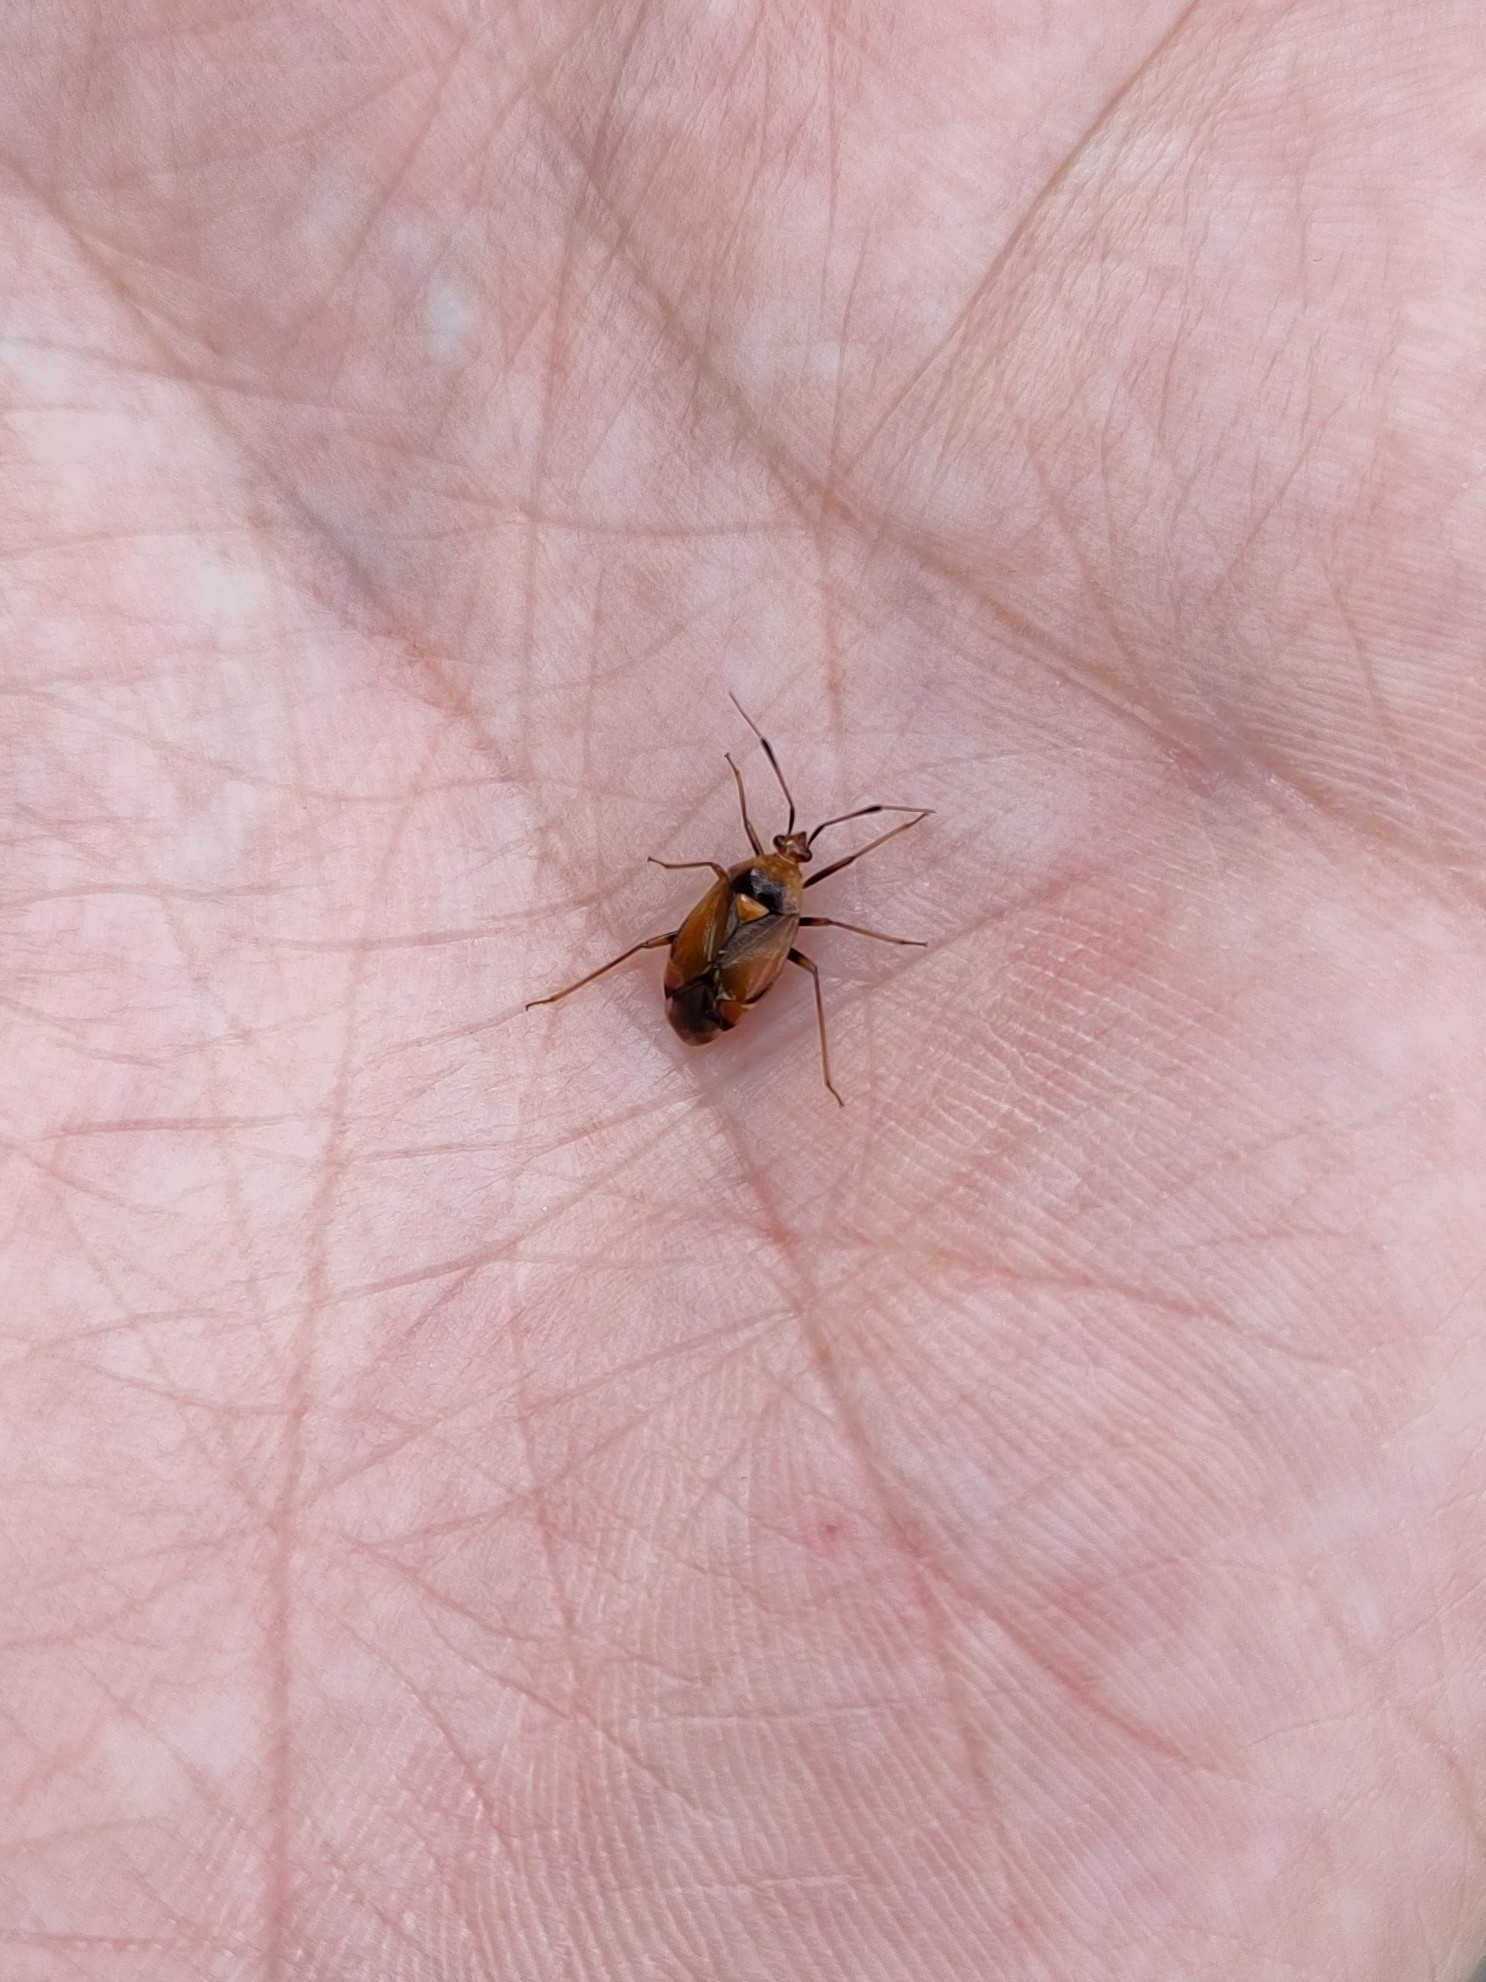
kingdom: Animalia
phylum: Arthropoda
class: Insecta
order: Hemiptera
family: Miridae
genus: Deraeocoris
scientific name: Deraeocoris ruber
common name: Plant bug
